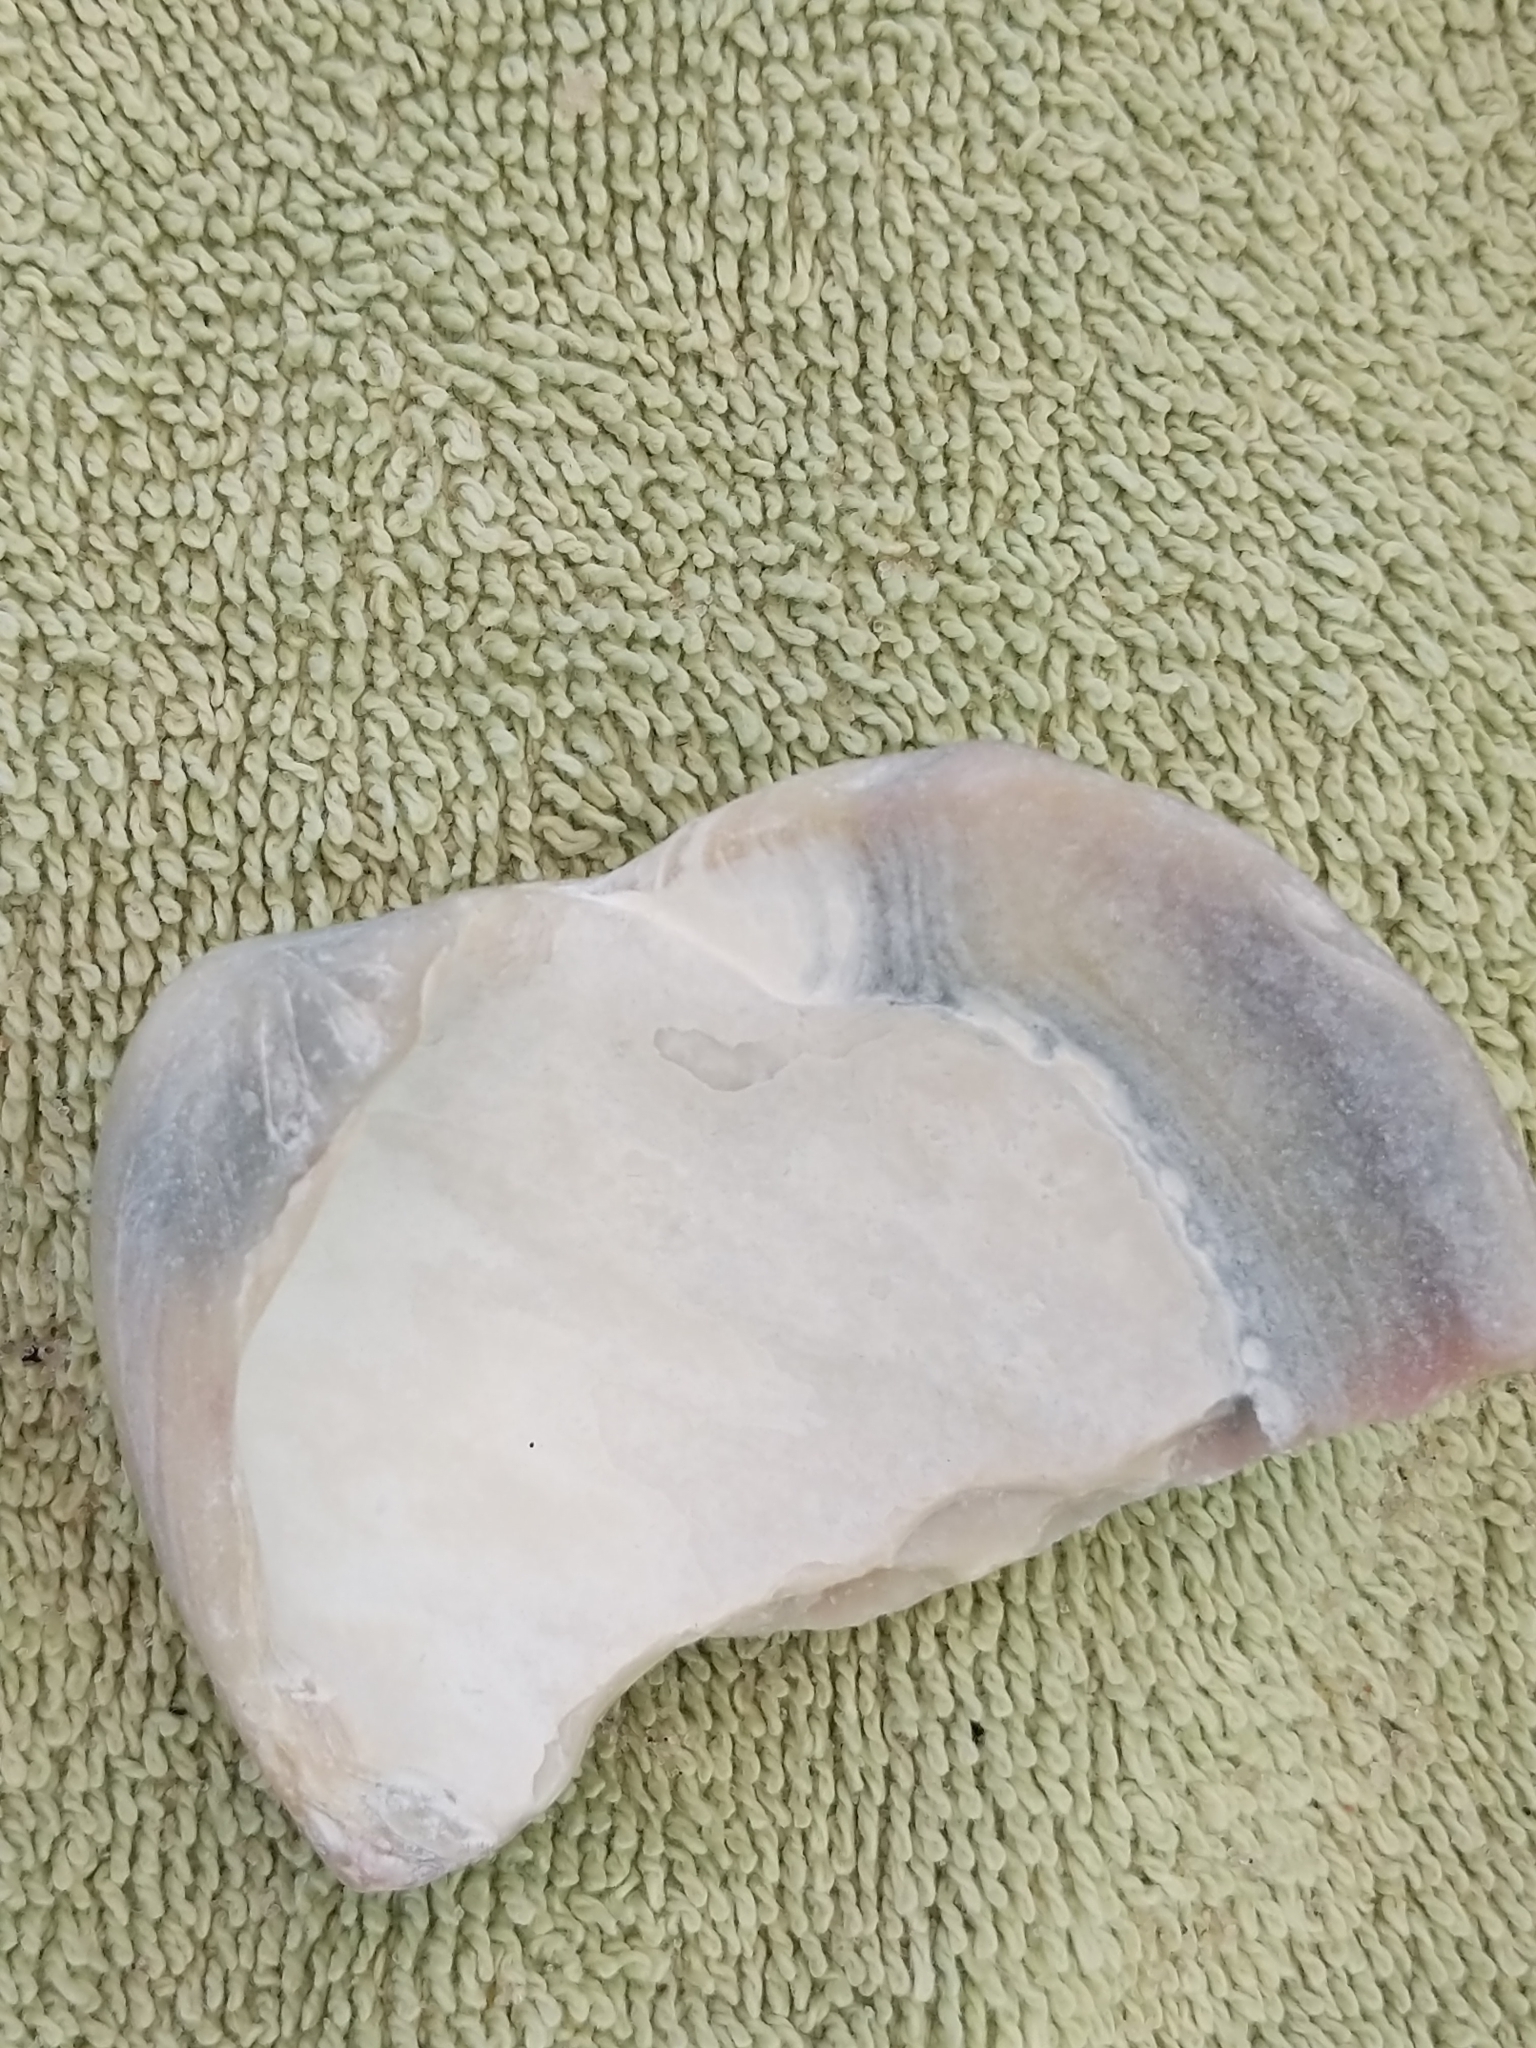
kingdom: Animalia
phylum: Mollusca
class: Bivalvia
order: Venerida
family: Veneridae
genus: Mercenaria
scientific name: Mercenaria mercenaria
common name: American hard-shelled clam
